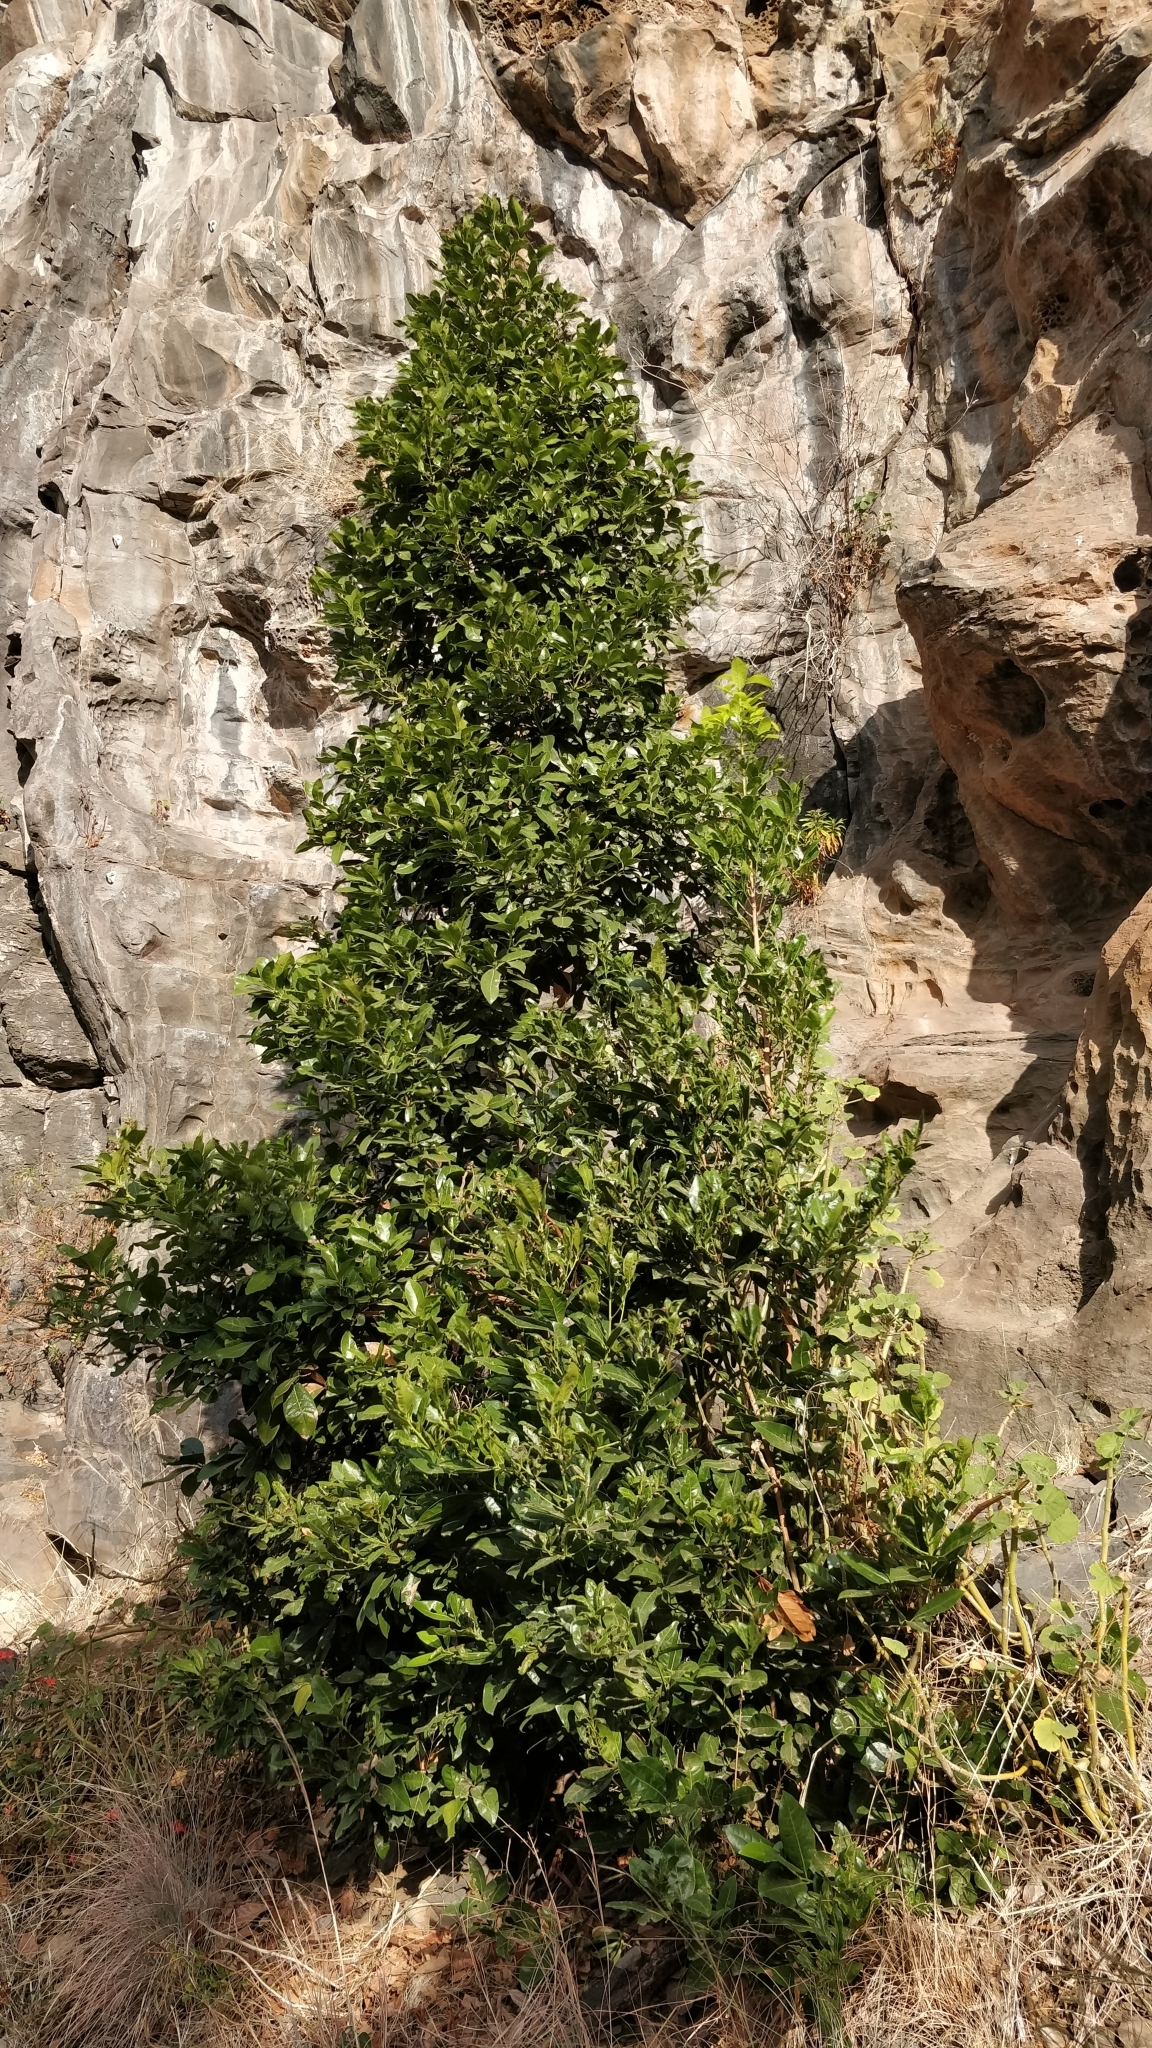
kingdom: Plantae
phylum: Tracheophyta
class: Magnoliopsida
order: Laurales
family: Lauraceae
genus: Apollonias
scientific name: Apollonias barbujana
